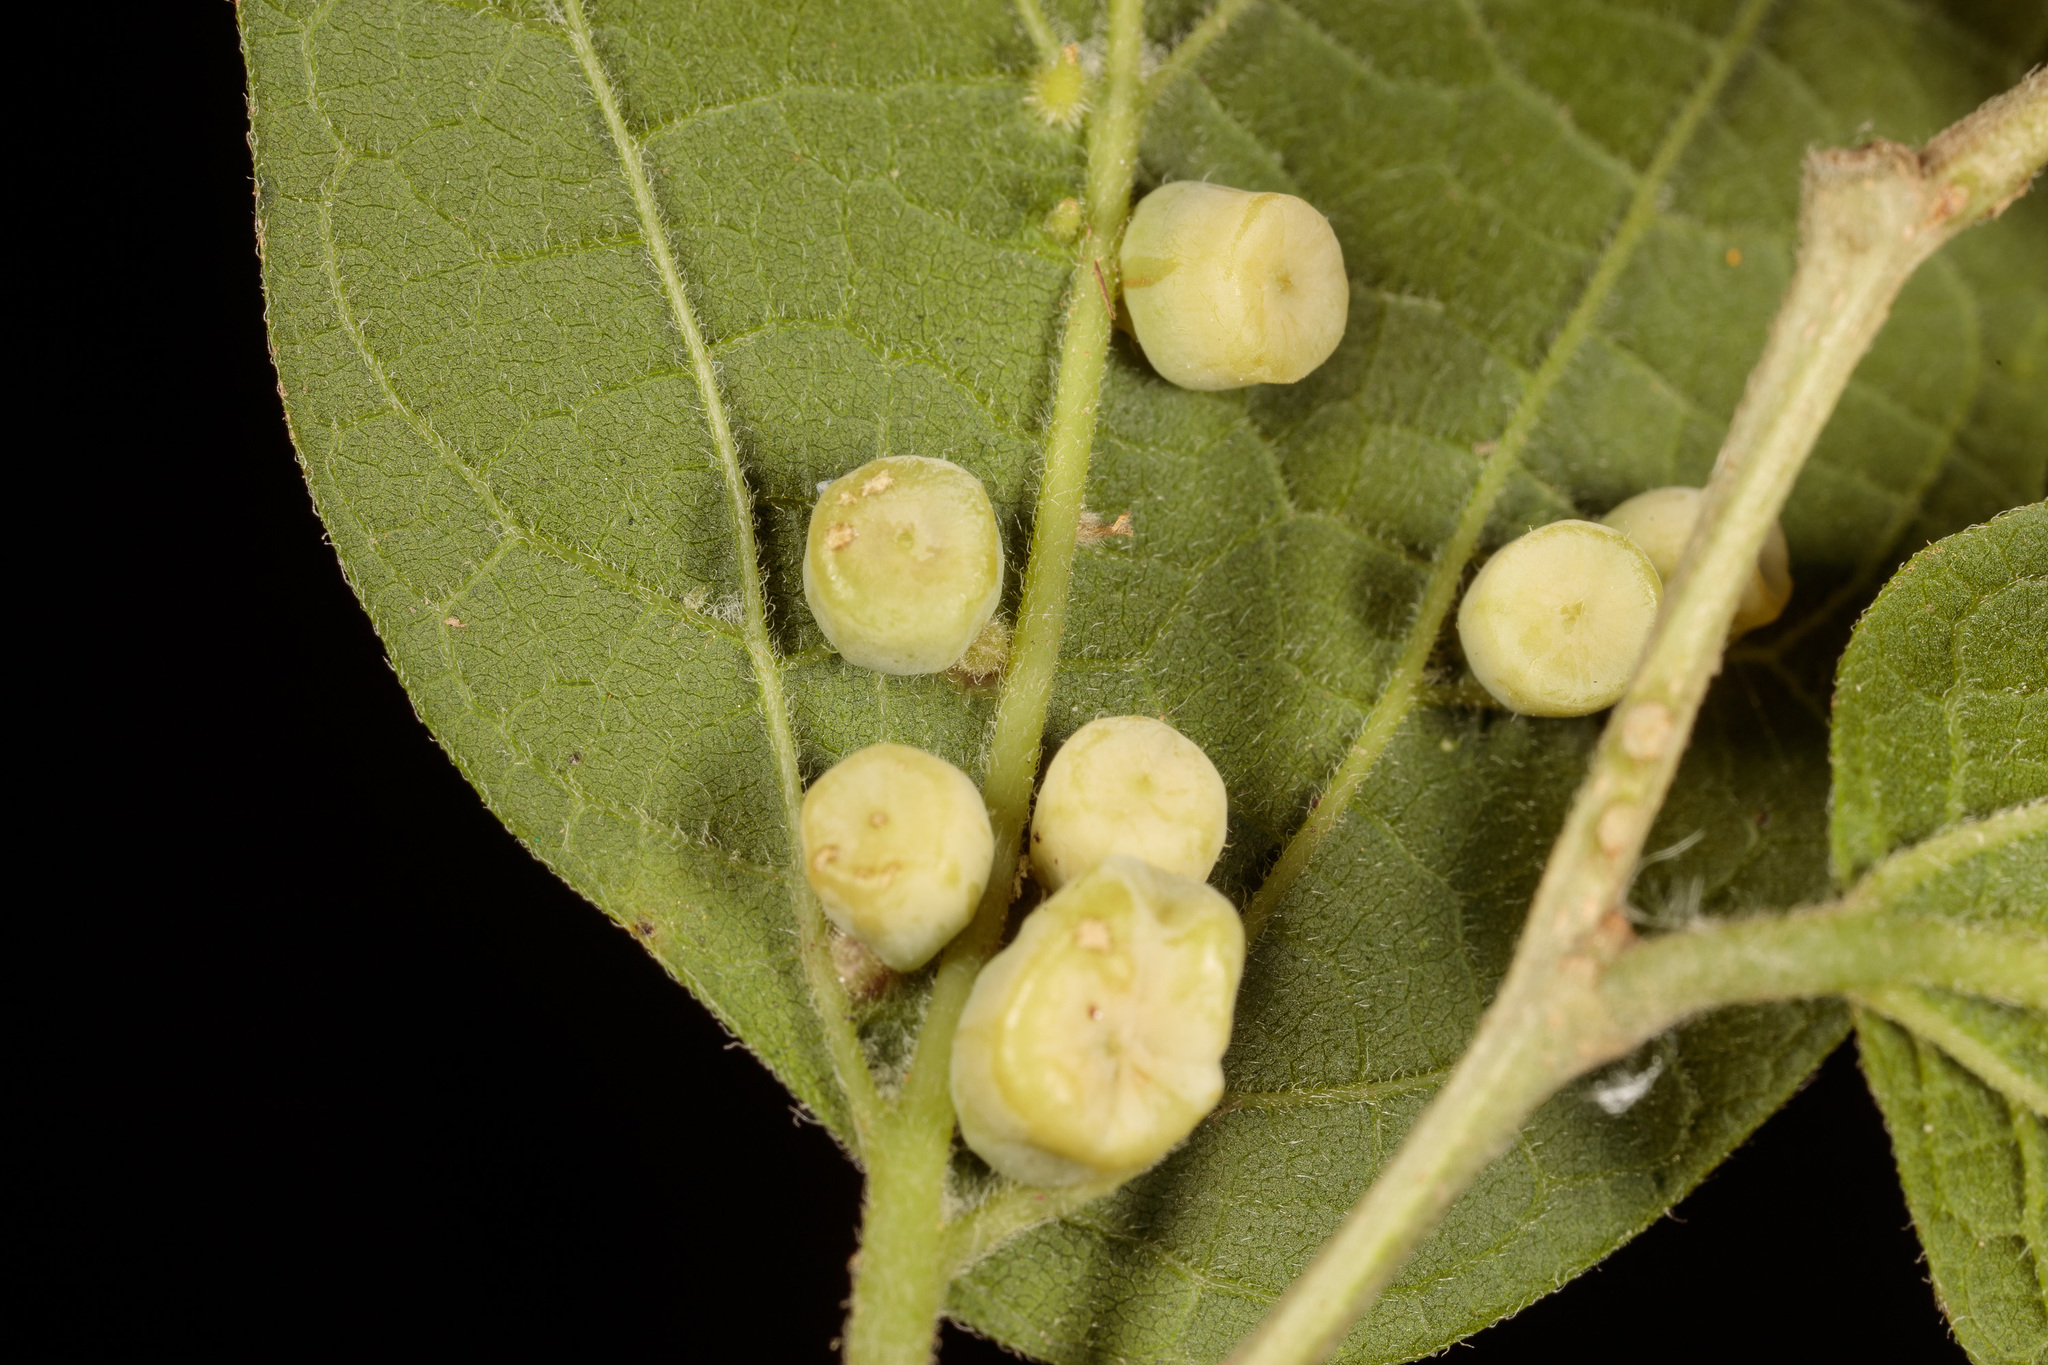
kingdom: Animalia
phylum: Arthropoda
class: Insecta
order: Hemiptera
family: Aphalaridae
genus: Pachypsylla
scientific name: Pachypsylla celtidismamma
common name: Hackberry nipplegall psyllid
